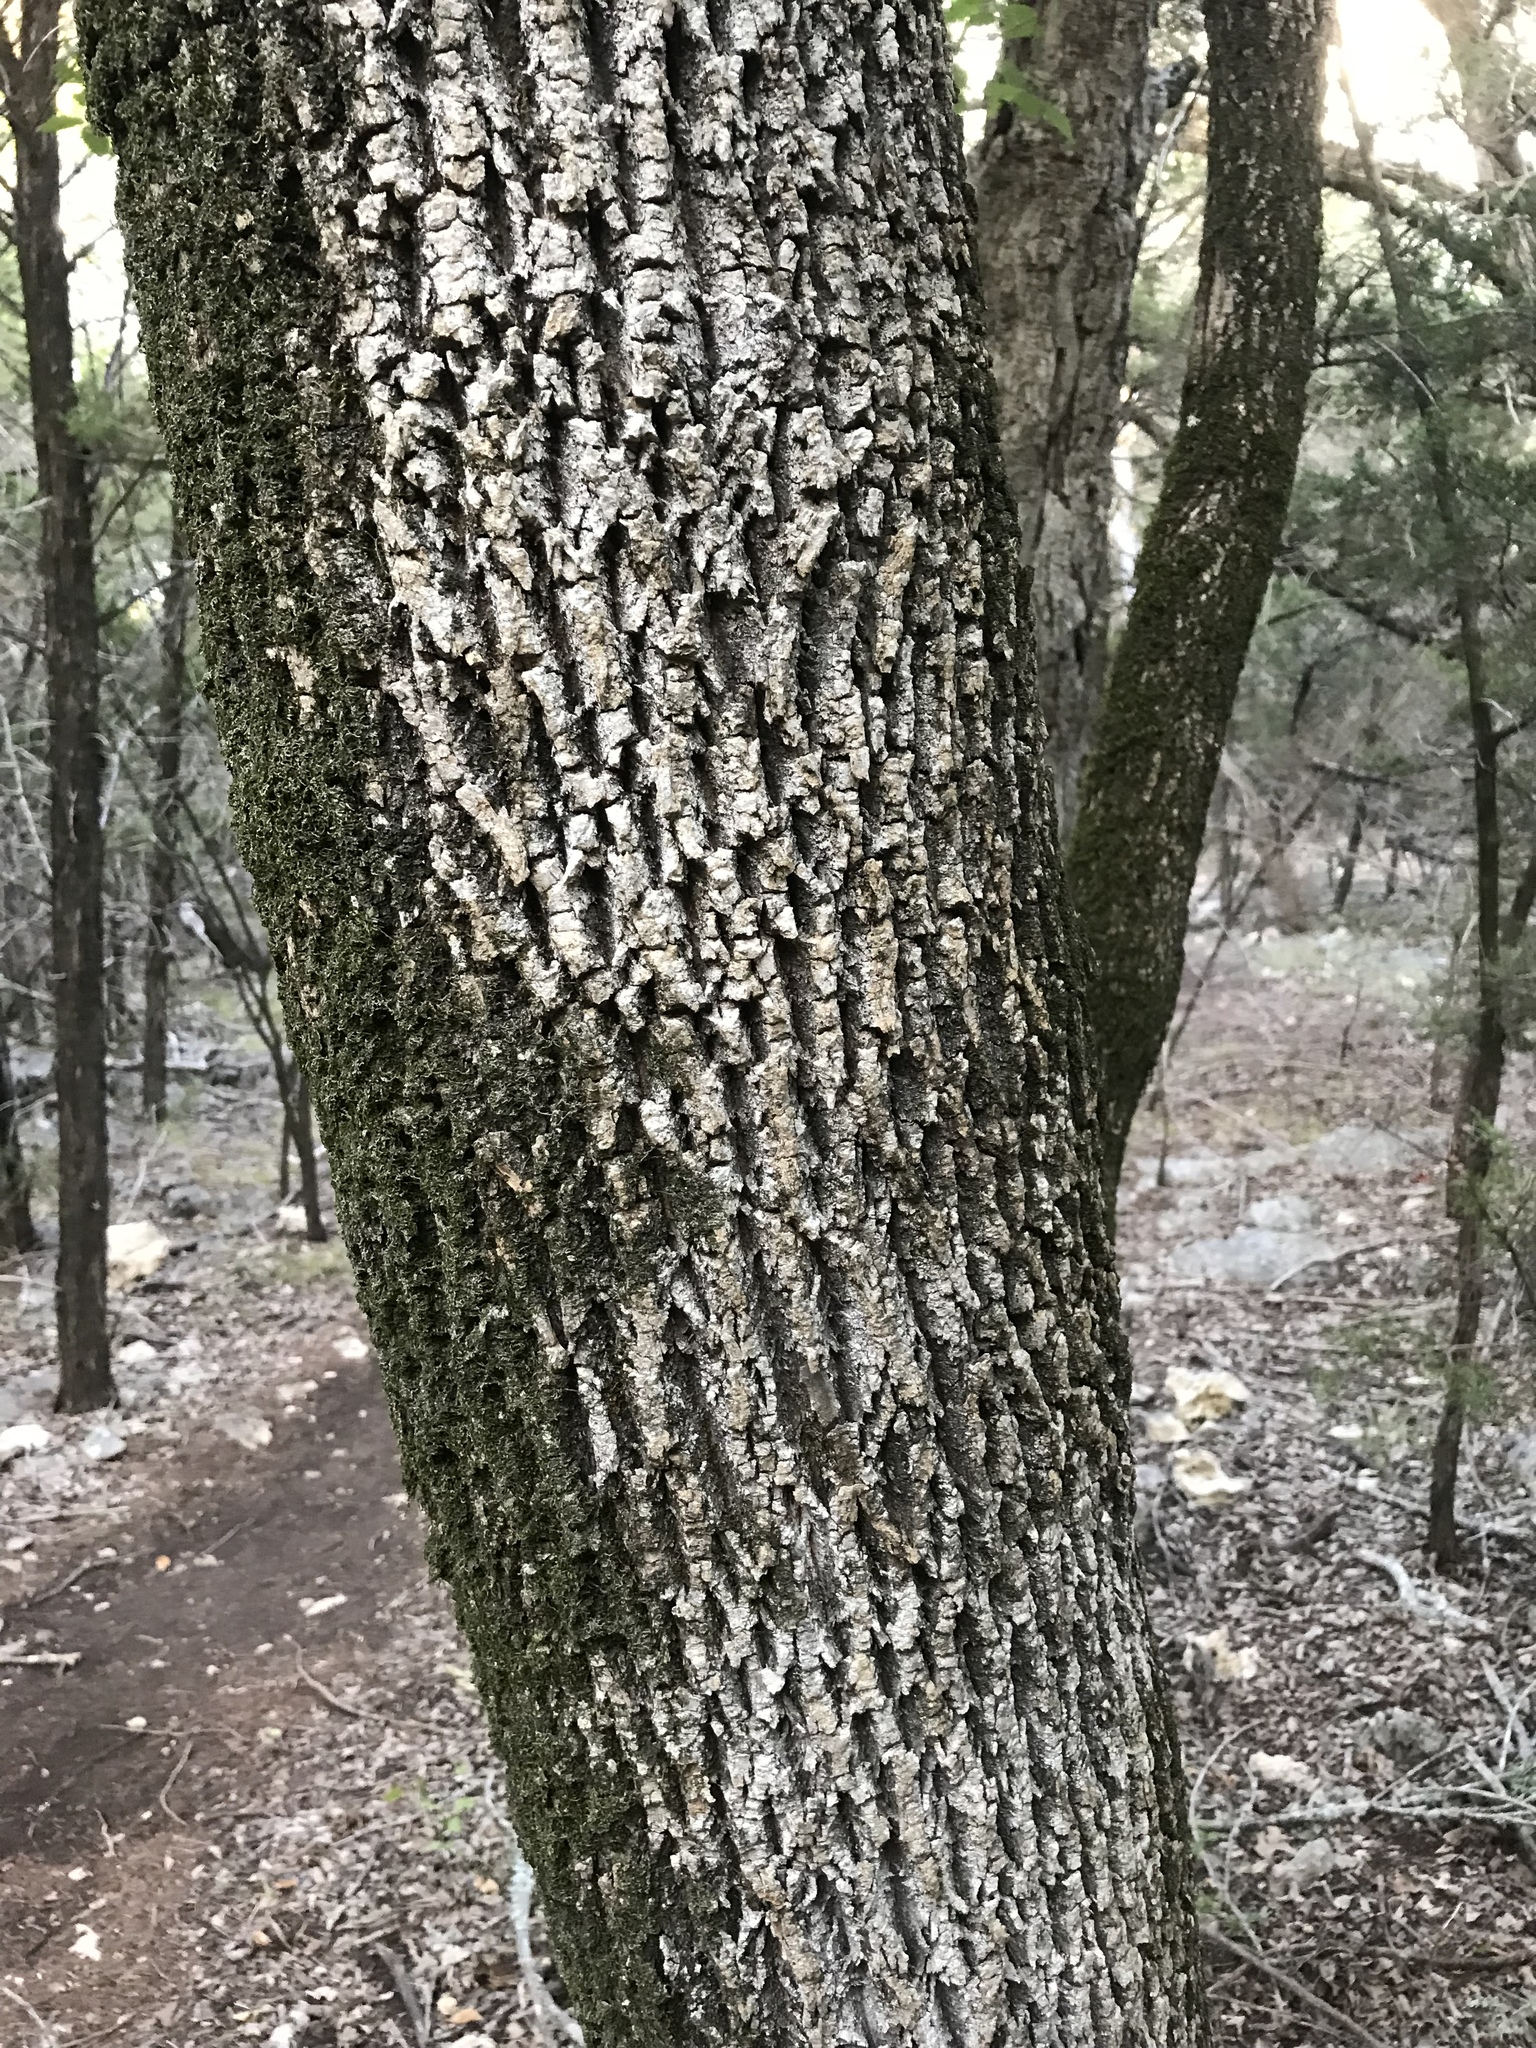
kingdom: Plantae
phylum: Tracheophyta
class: Magnoliopsida
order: Lamiales
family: Oleaceae
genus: Fraxinus
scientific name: Fraxinus albicans
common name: Texas ash
